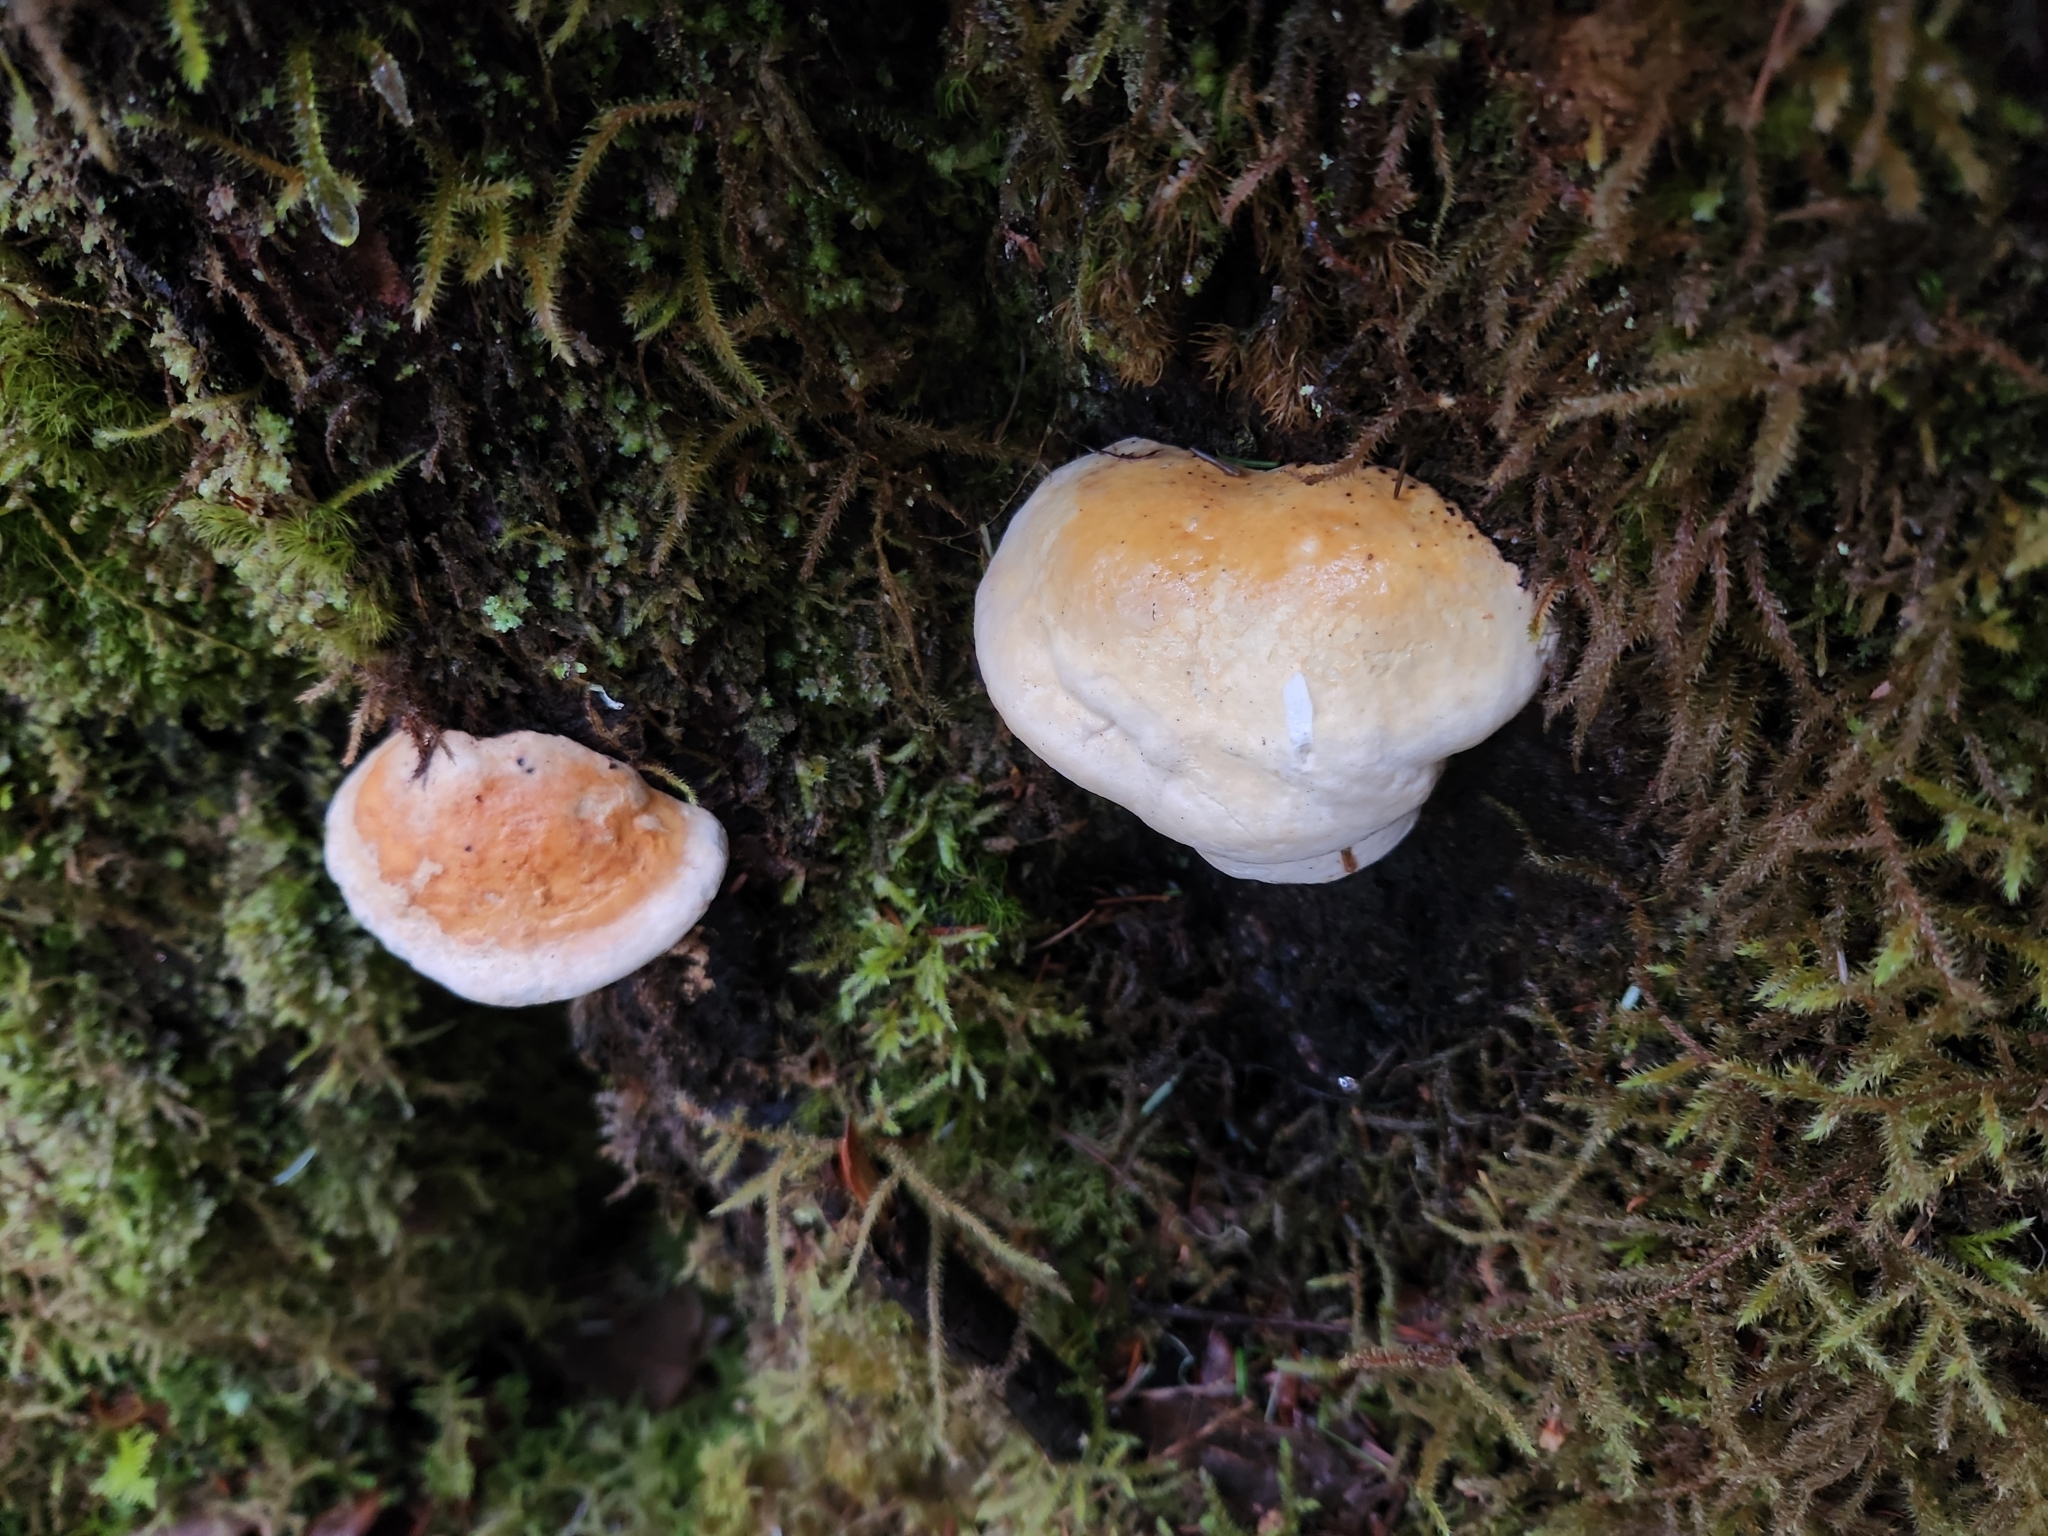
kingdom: Fungi
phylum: Basidiomycota
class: Agaricomycetes
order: Polyporales
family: Fomitopsidaceae
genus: Fomitopsis
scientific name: Fomitopsis mounceae
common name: Northern red belt
